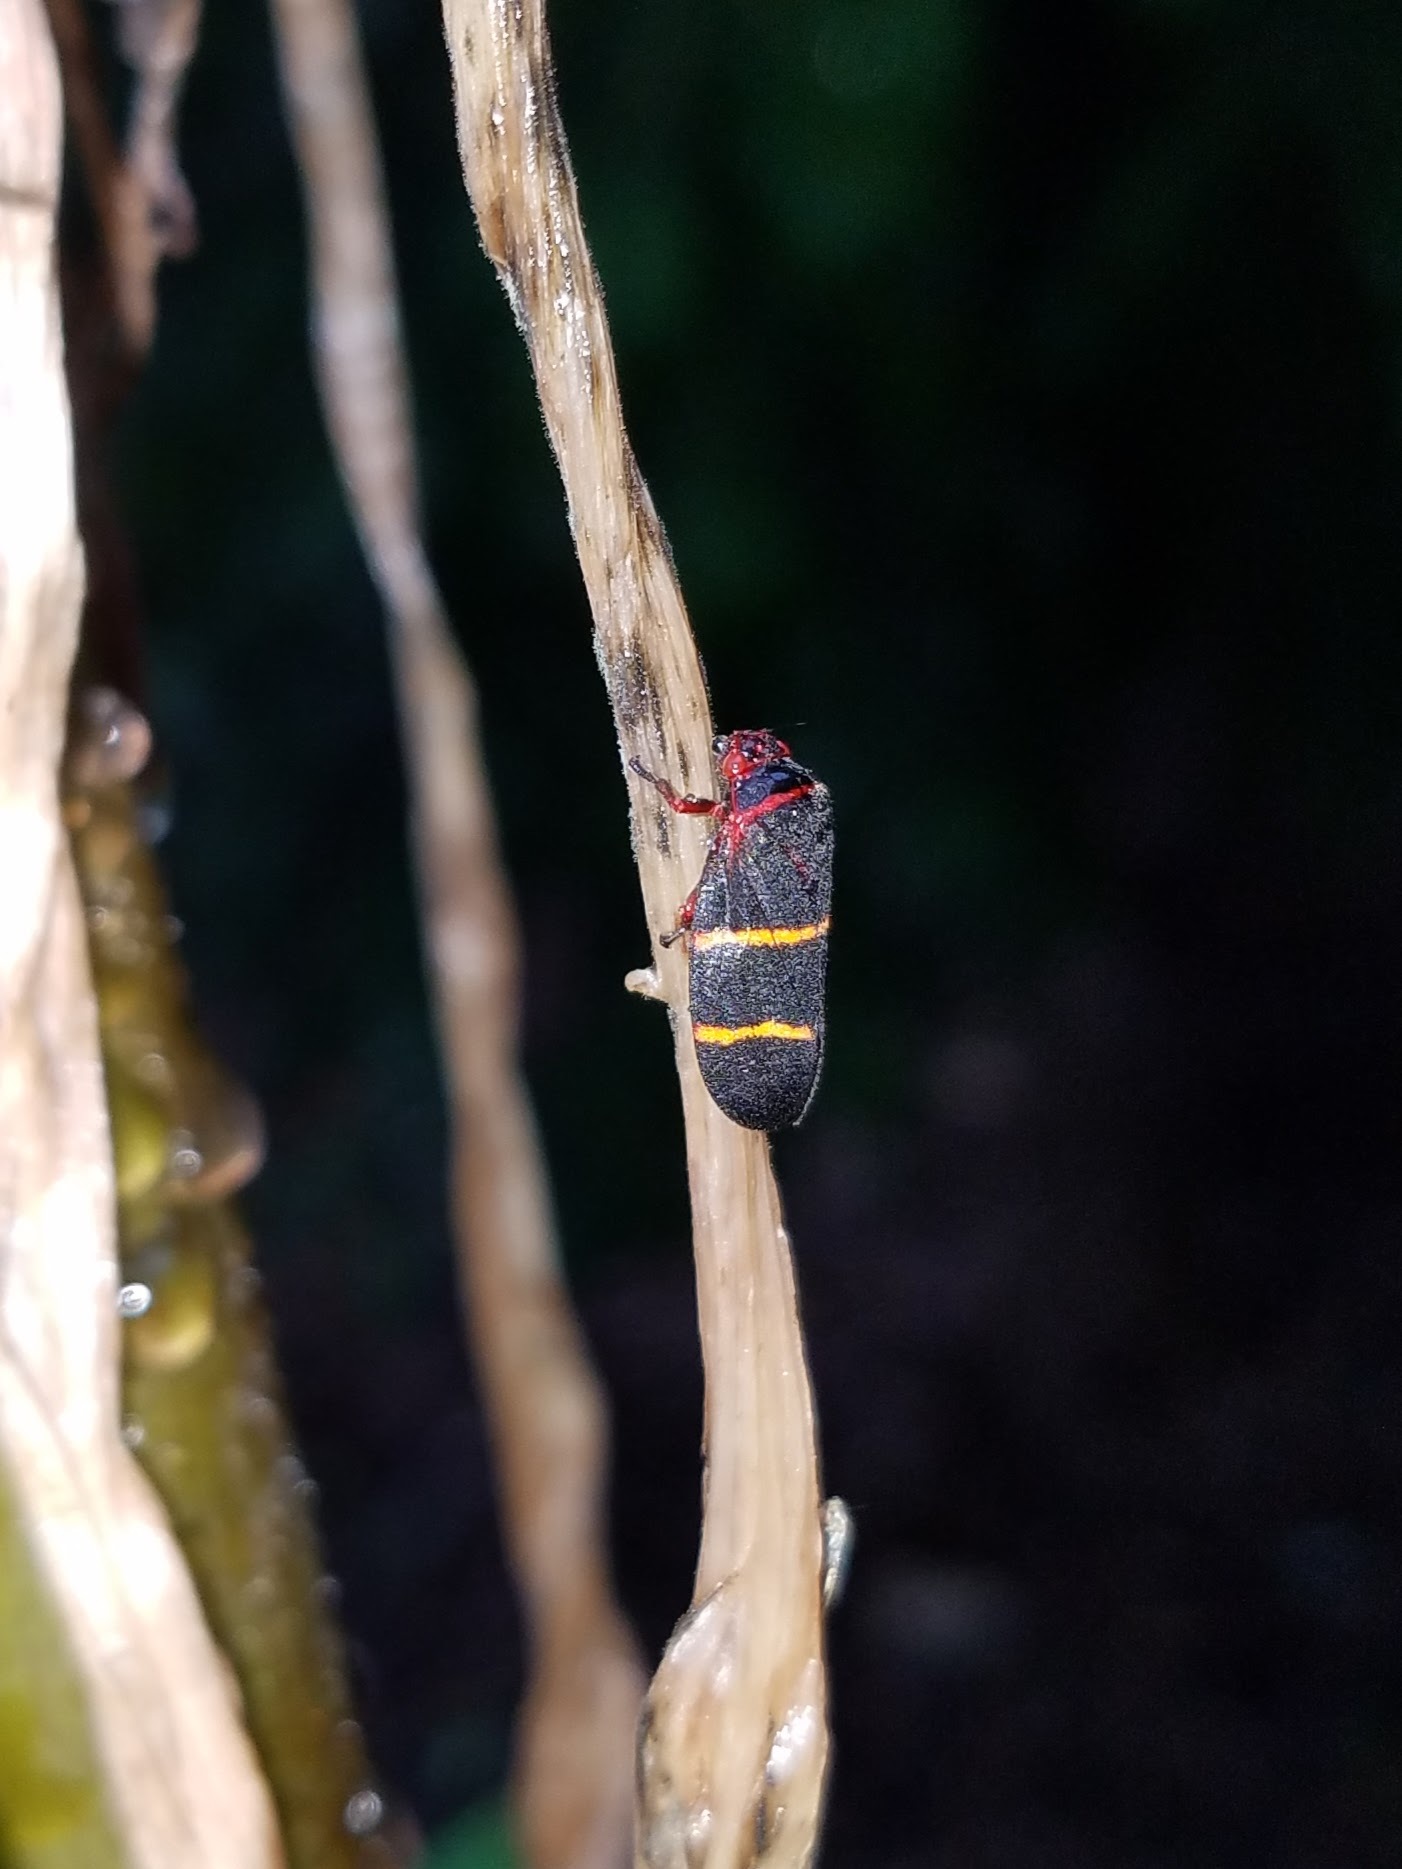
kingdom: Animalia
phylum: Arthropoda
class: Insecta
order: Hemiptera
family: Cercopidae
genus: Prosapia
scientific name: Prosapia bicincta
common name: Twolined spittlebug
